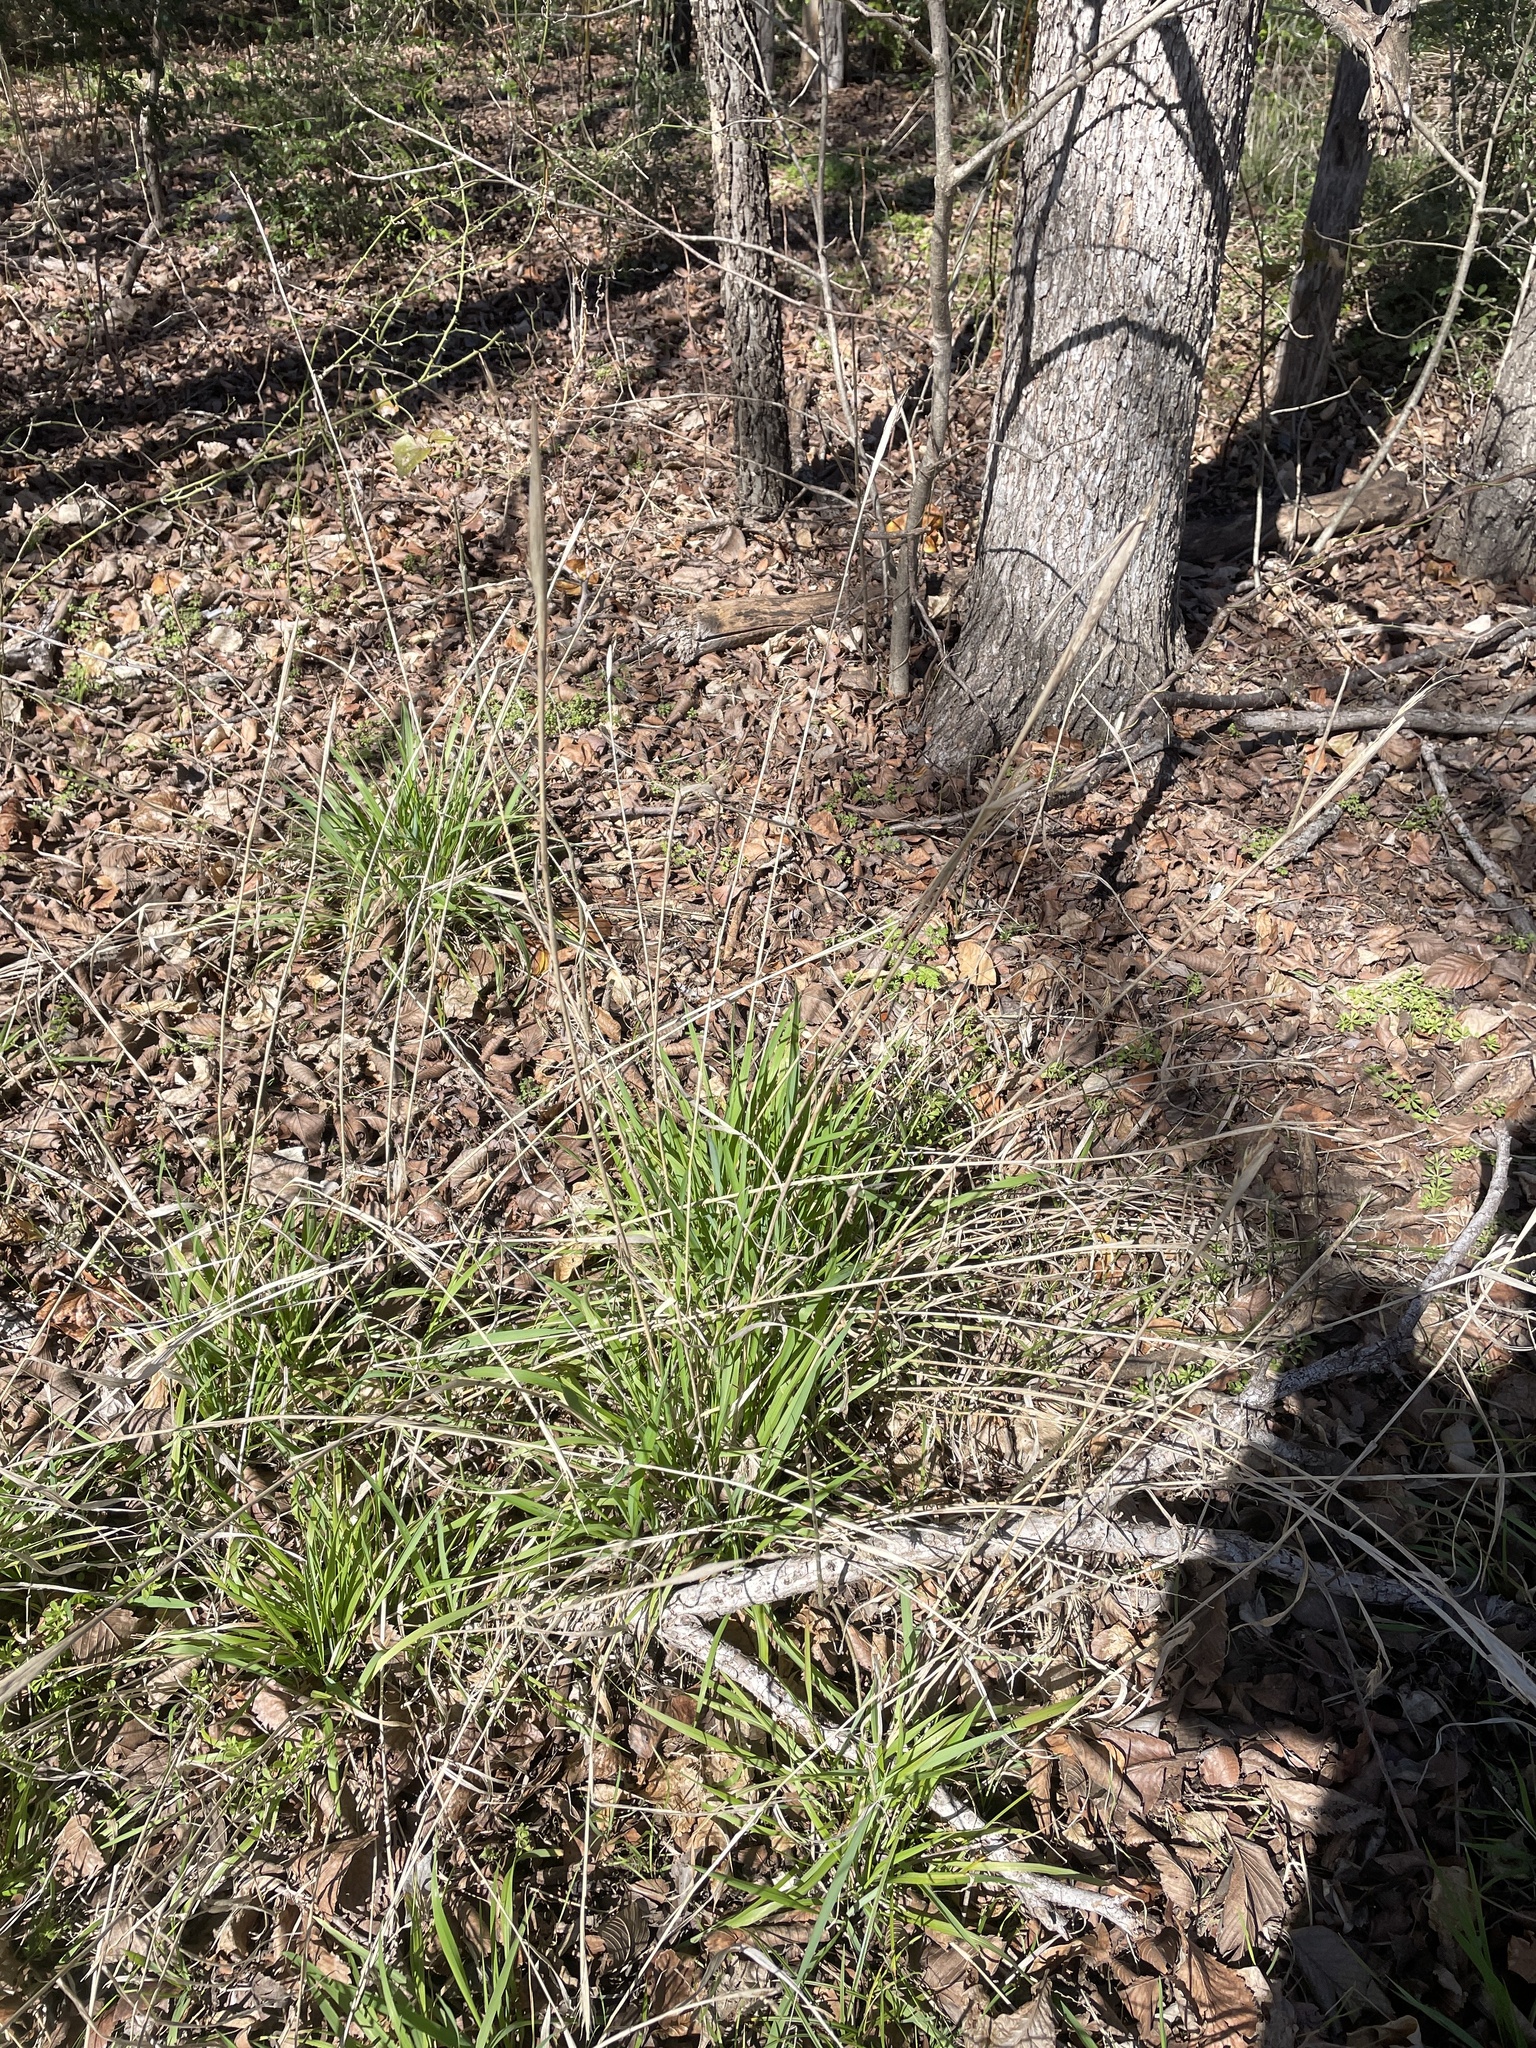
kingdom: Plantae
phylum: Tracheophyta
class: Liliopsida
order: Poales
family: Poaceae
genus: Elymus
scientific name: Elymus virginicus
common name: Common eastern wildrye
